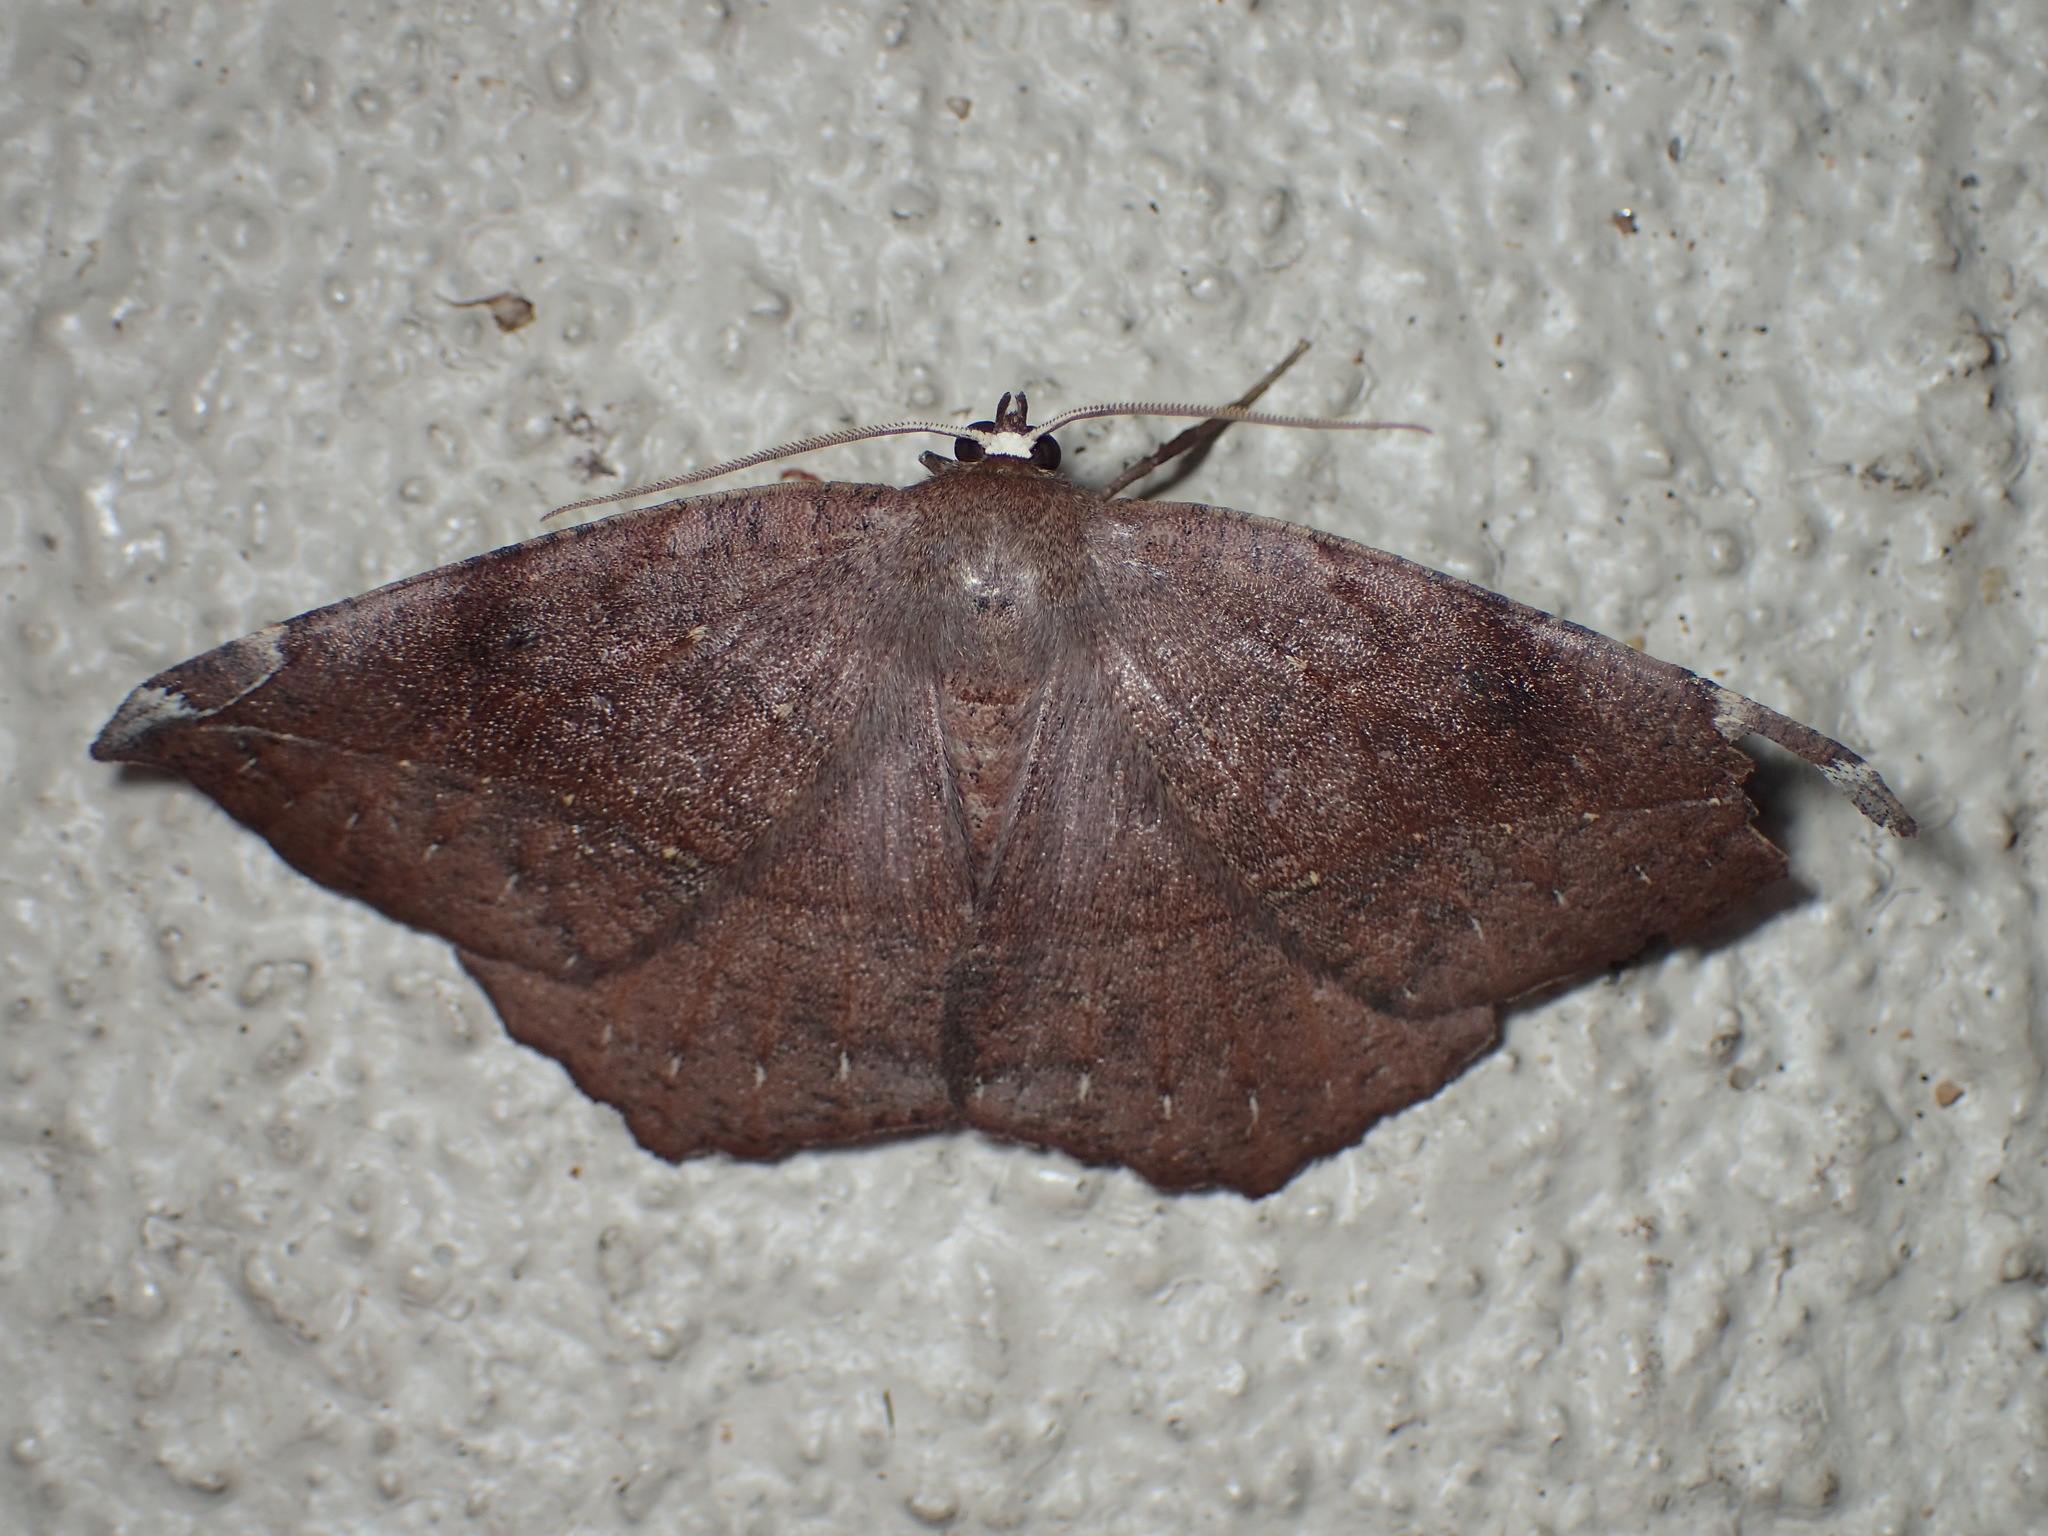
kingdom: Animalia
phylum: Arthropoda
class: Insecta
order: Lepidoptera
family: Geometridae
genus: Eutrapela
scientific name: Eutrapela clemataria
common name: Curved-toothed geometer
